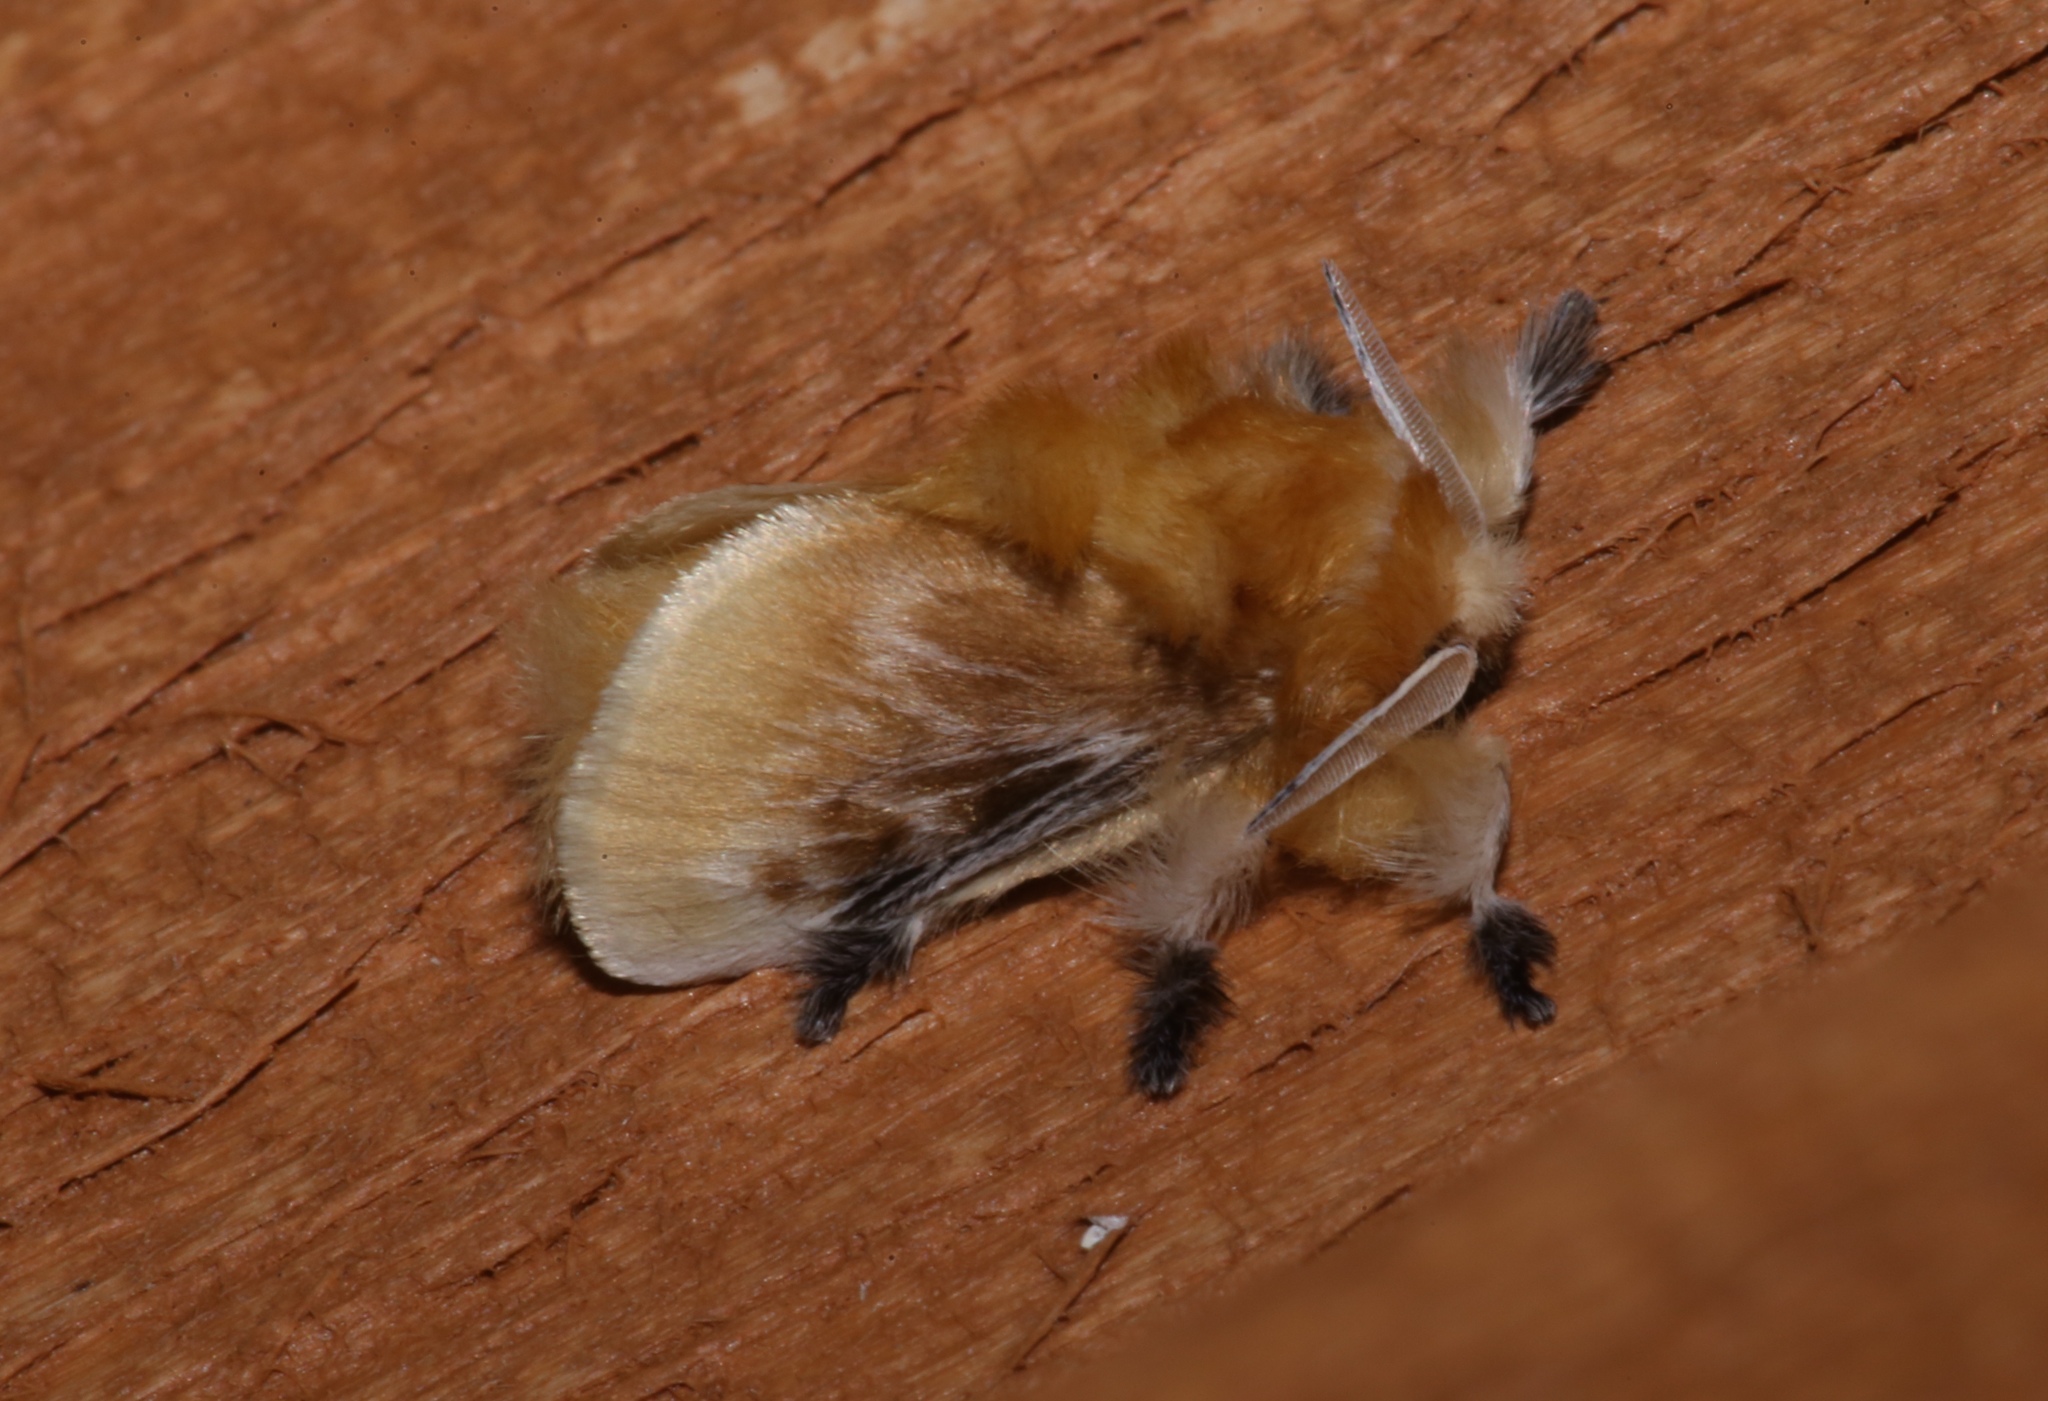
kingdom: Animalia
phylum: Arthropoda
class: Insecta
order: Lepidoptera
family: Megalopygidae
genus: Megalopyge
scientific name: Megalopyge opercularis
